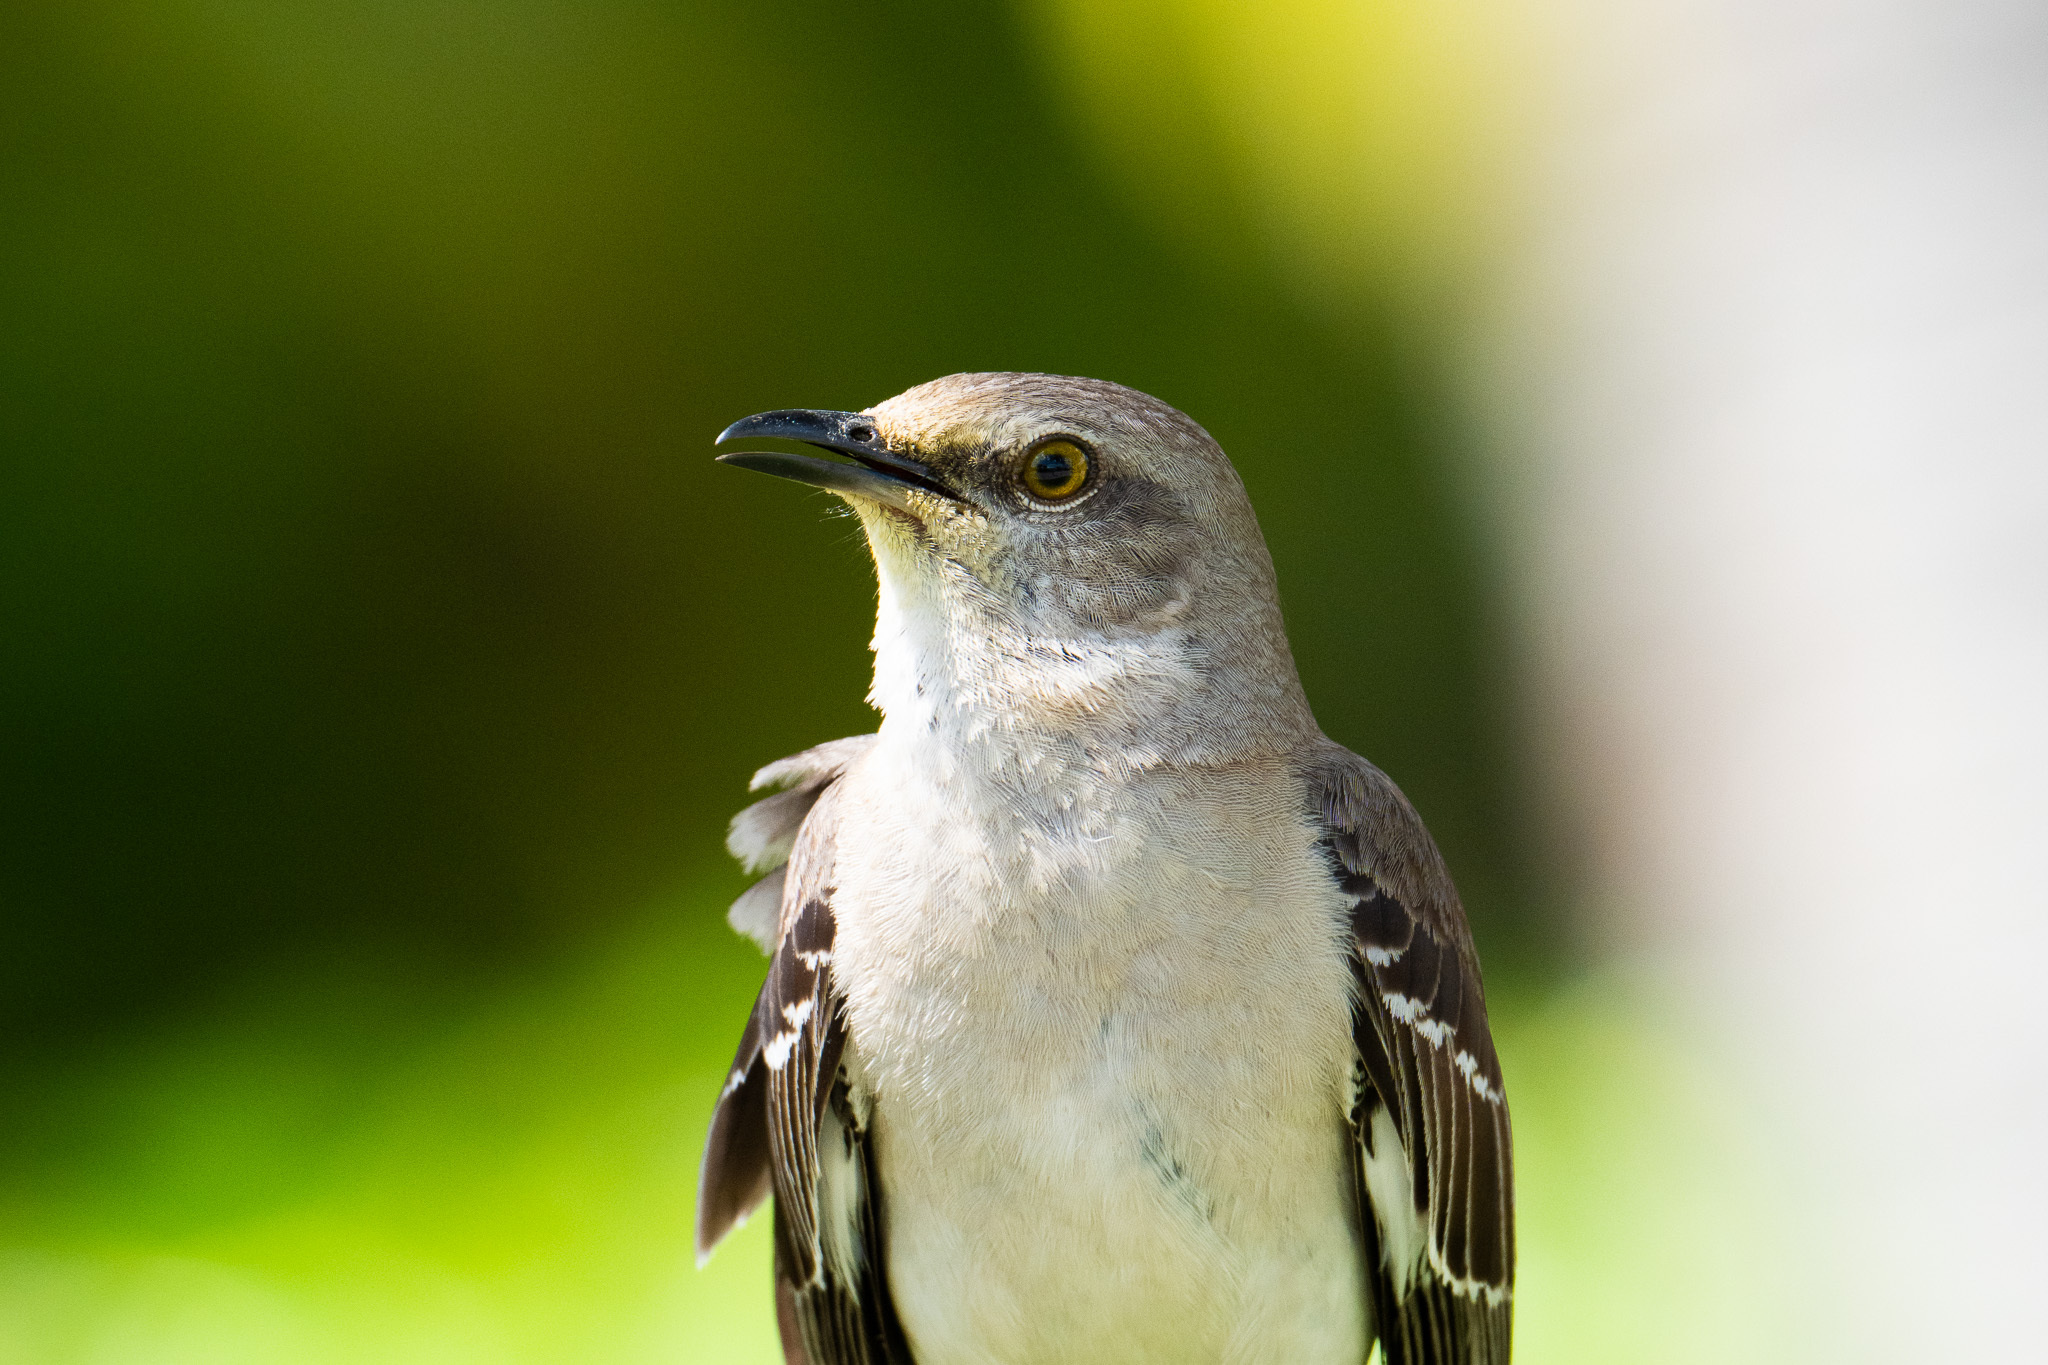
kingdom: Animalia
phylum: Chordata
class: Aves
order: Passeriformes
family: Mimidae
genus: Mimus
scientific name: Mimus polyglottos
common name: Northern mockingbird
